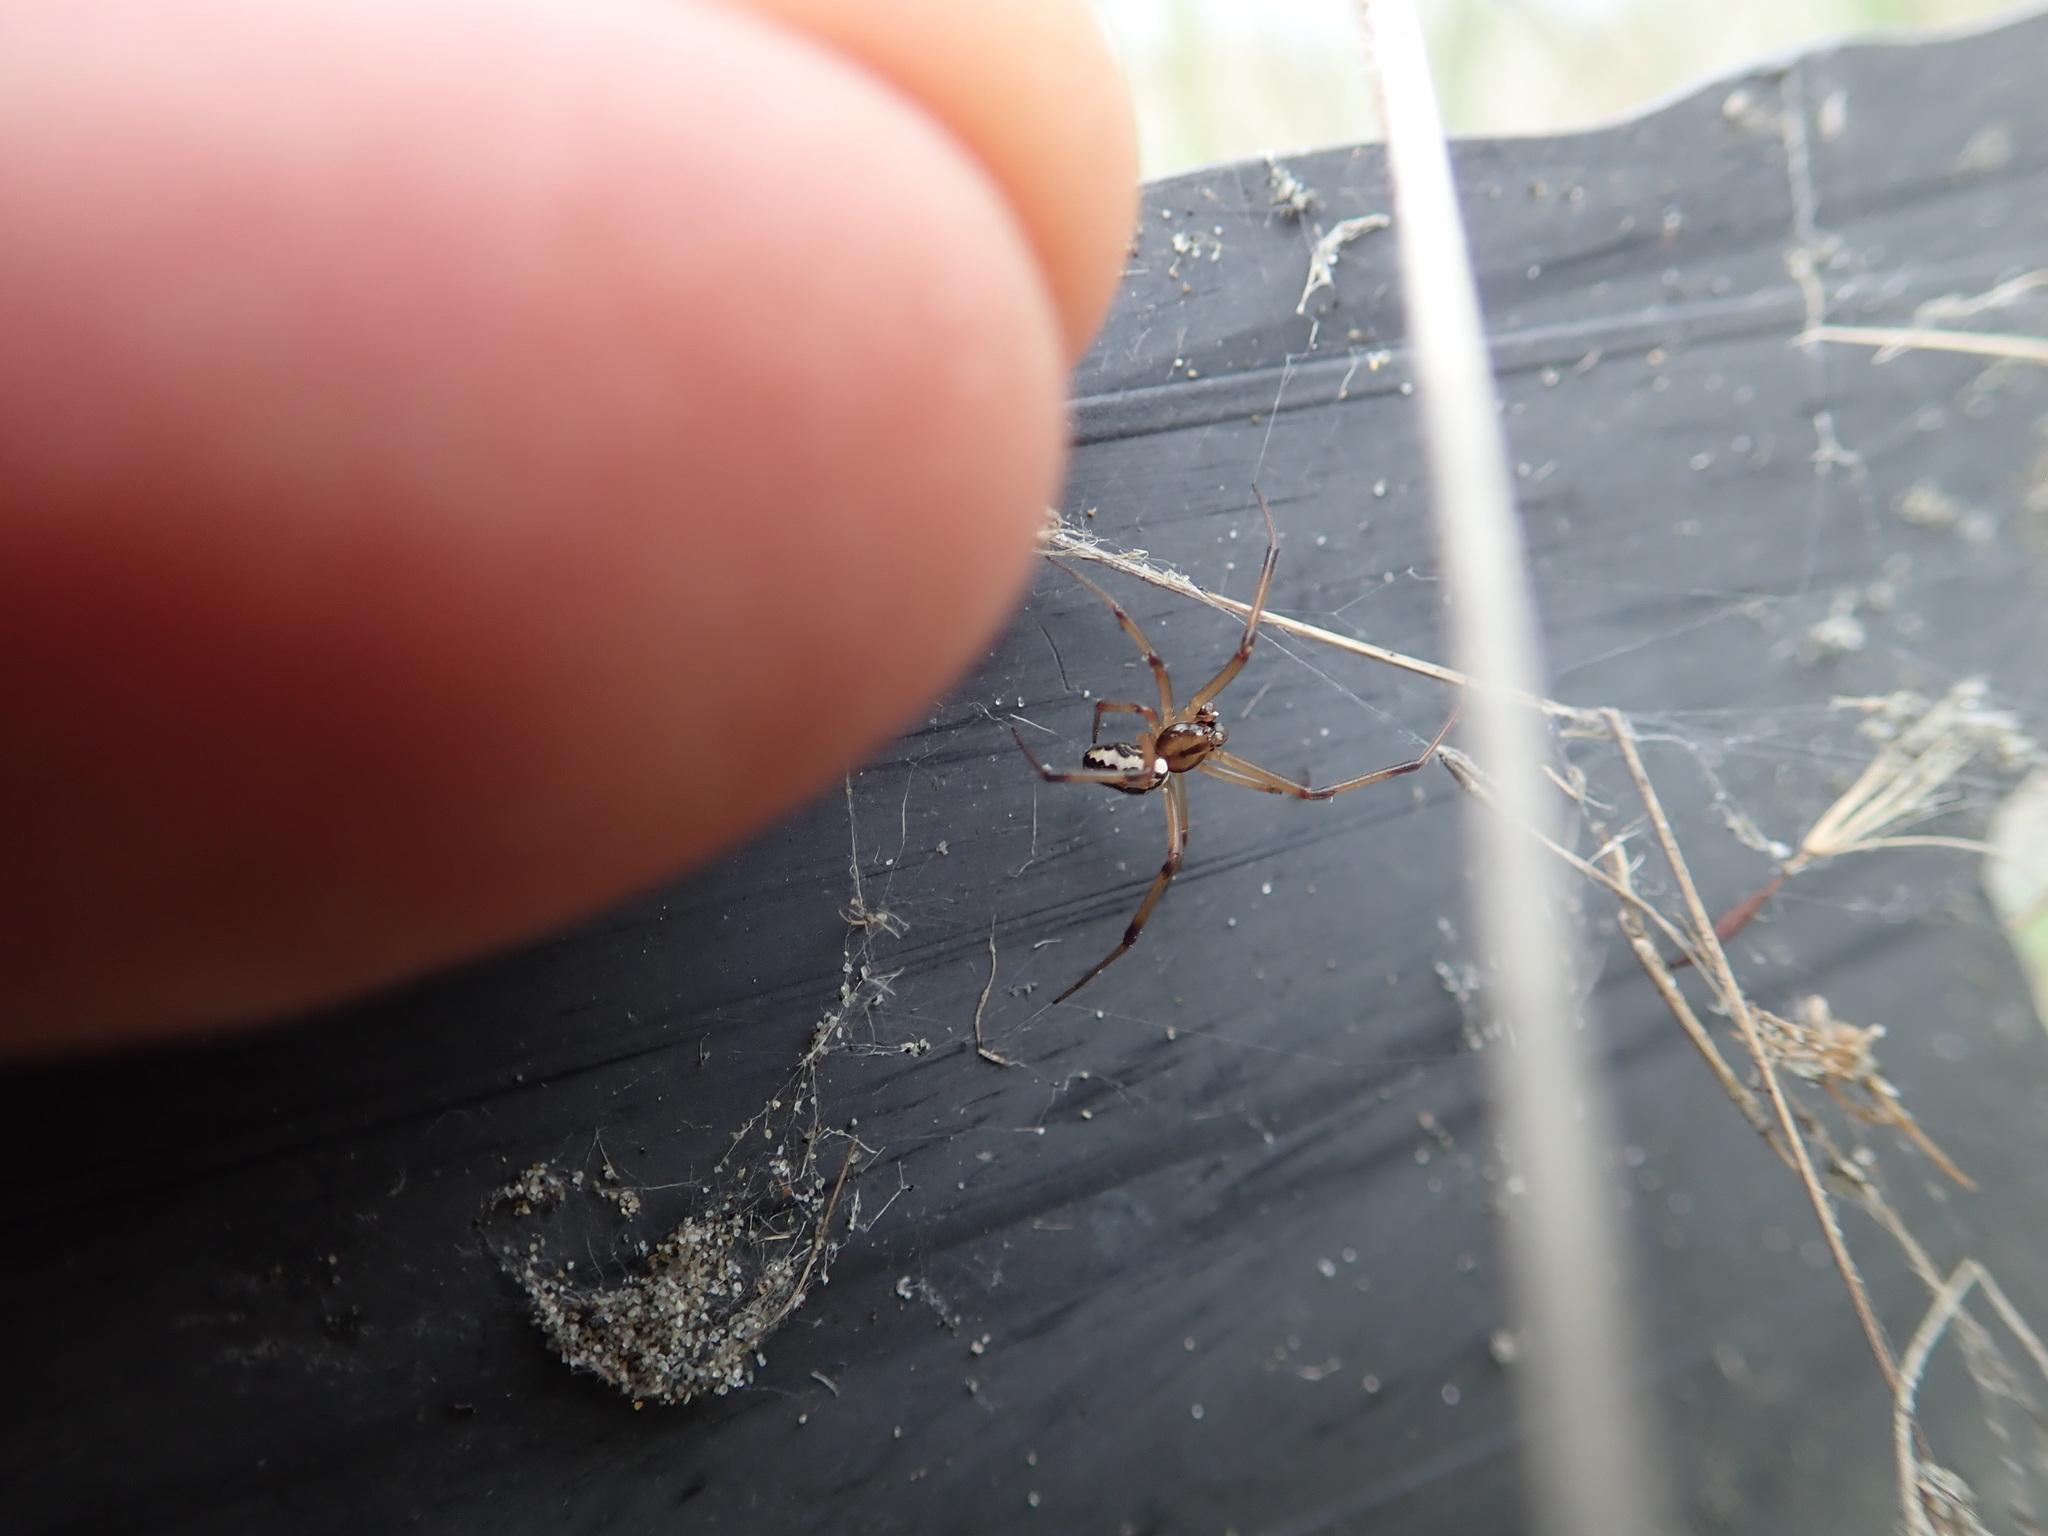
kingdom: Animalia
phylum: Arthropoda
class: Arachnida
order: Araneae
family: Theridiidae
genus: Latrodectus
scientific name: Latrodectus katipo
